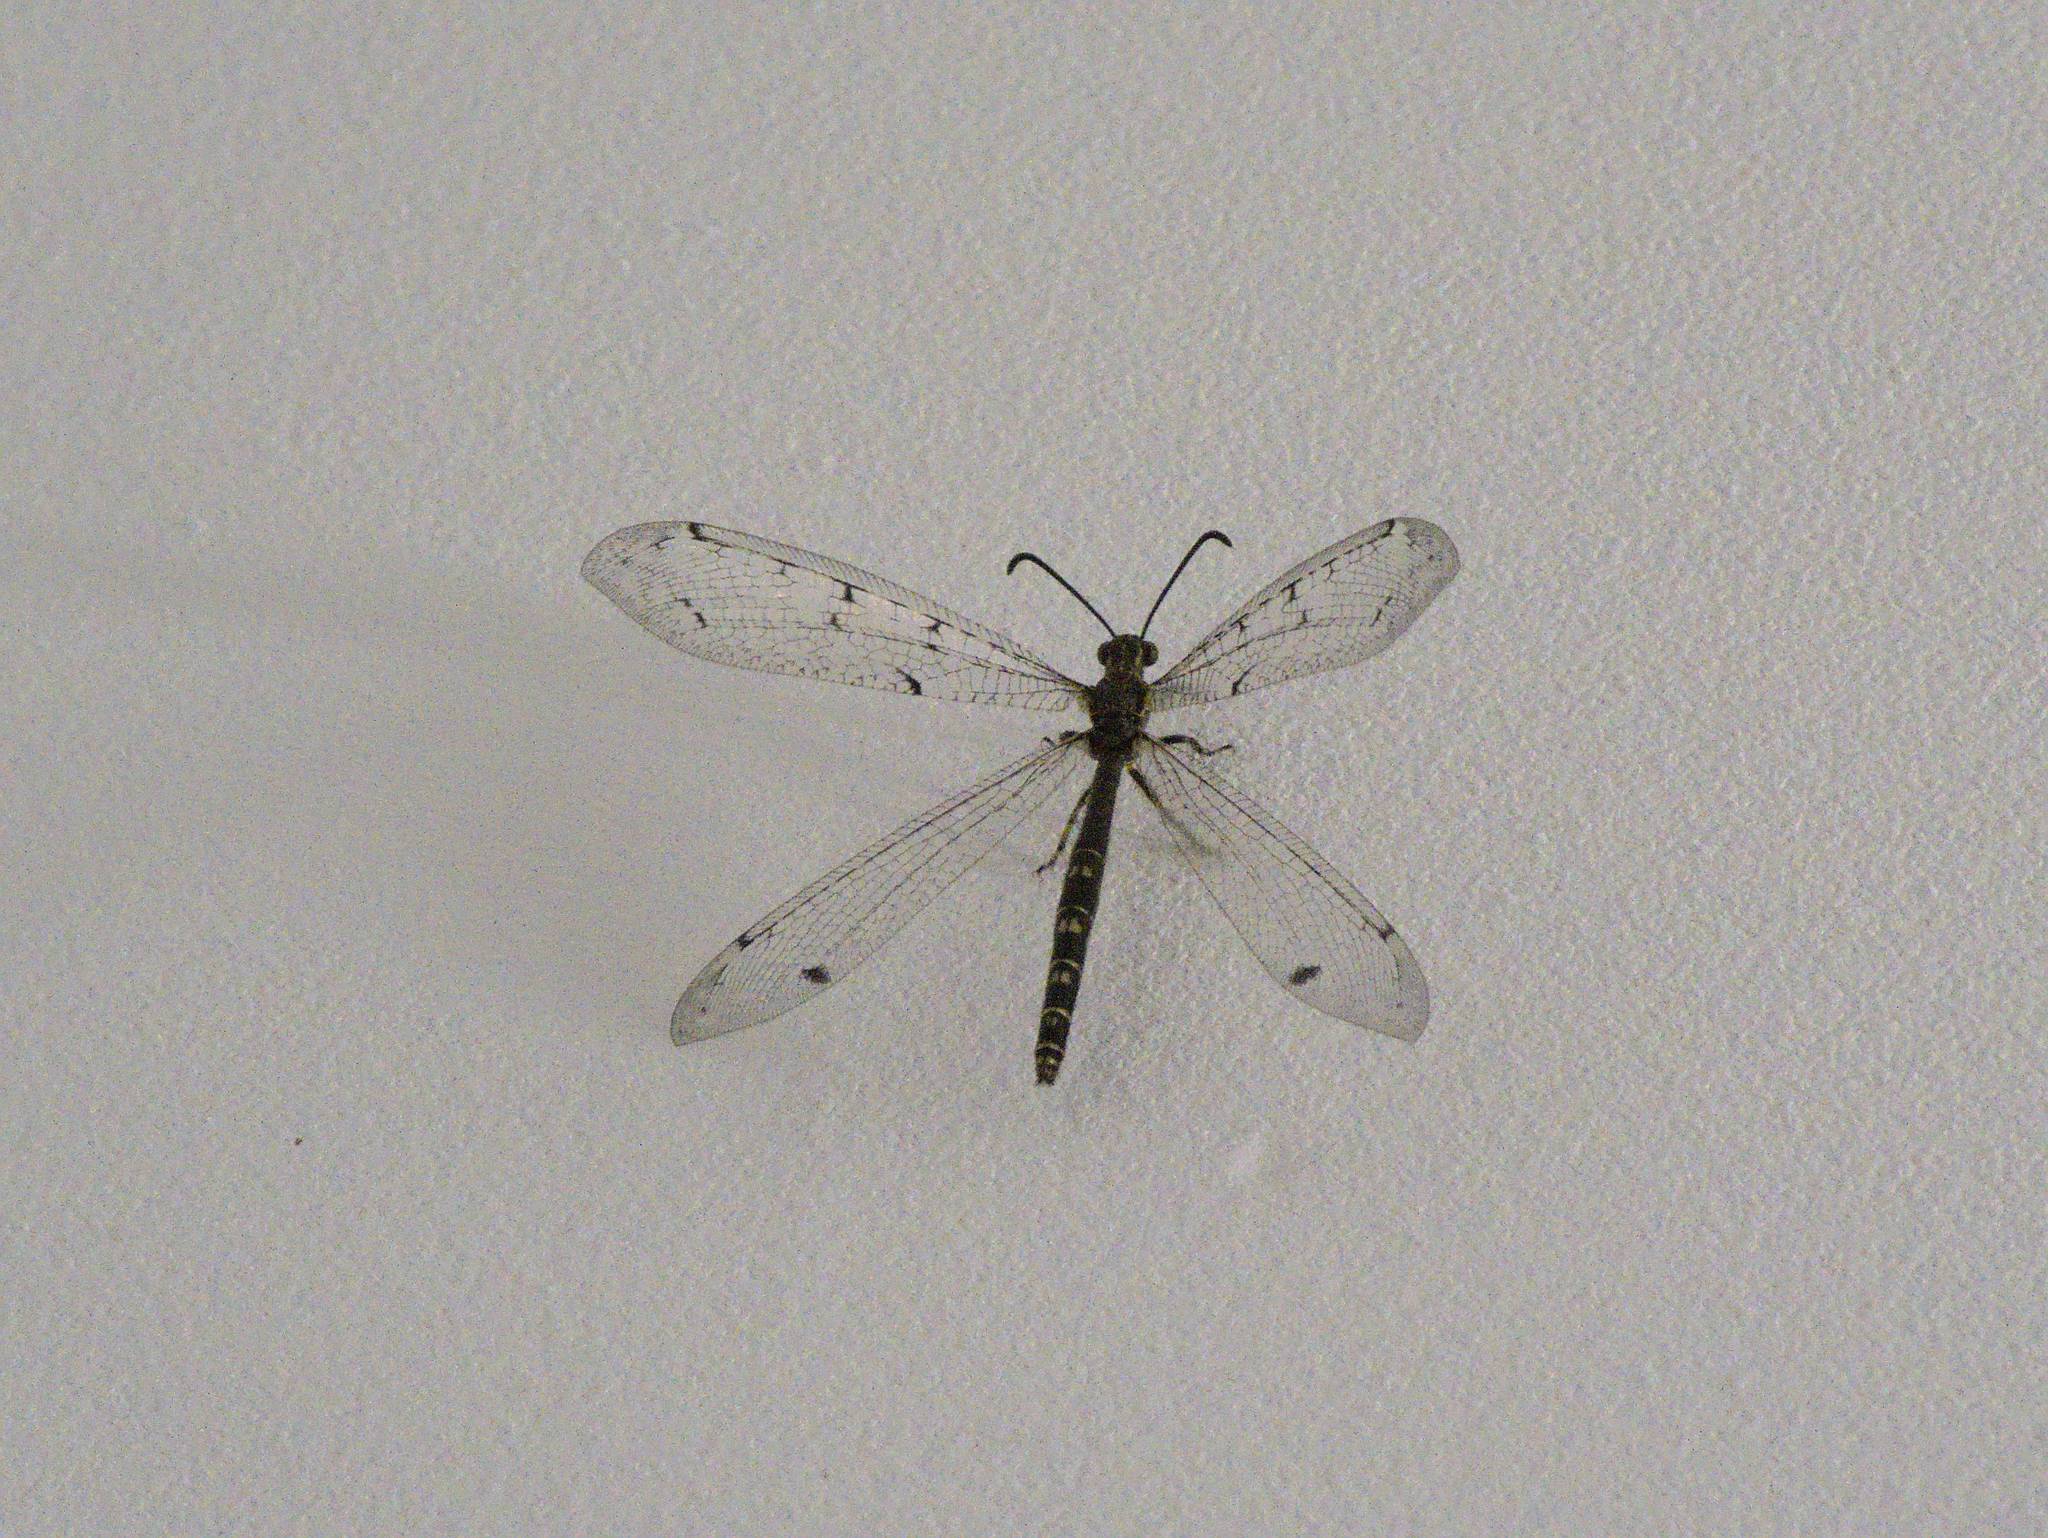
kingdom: Animalia
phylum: Arthropoda
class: Insecta
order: Neuroptera
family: Myrmeleontidae
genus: Distoleon
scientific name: Distoleon tetragrammicus
